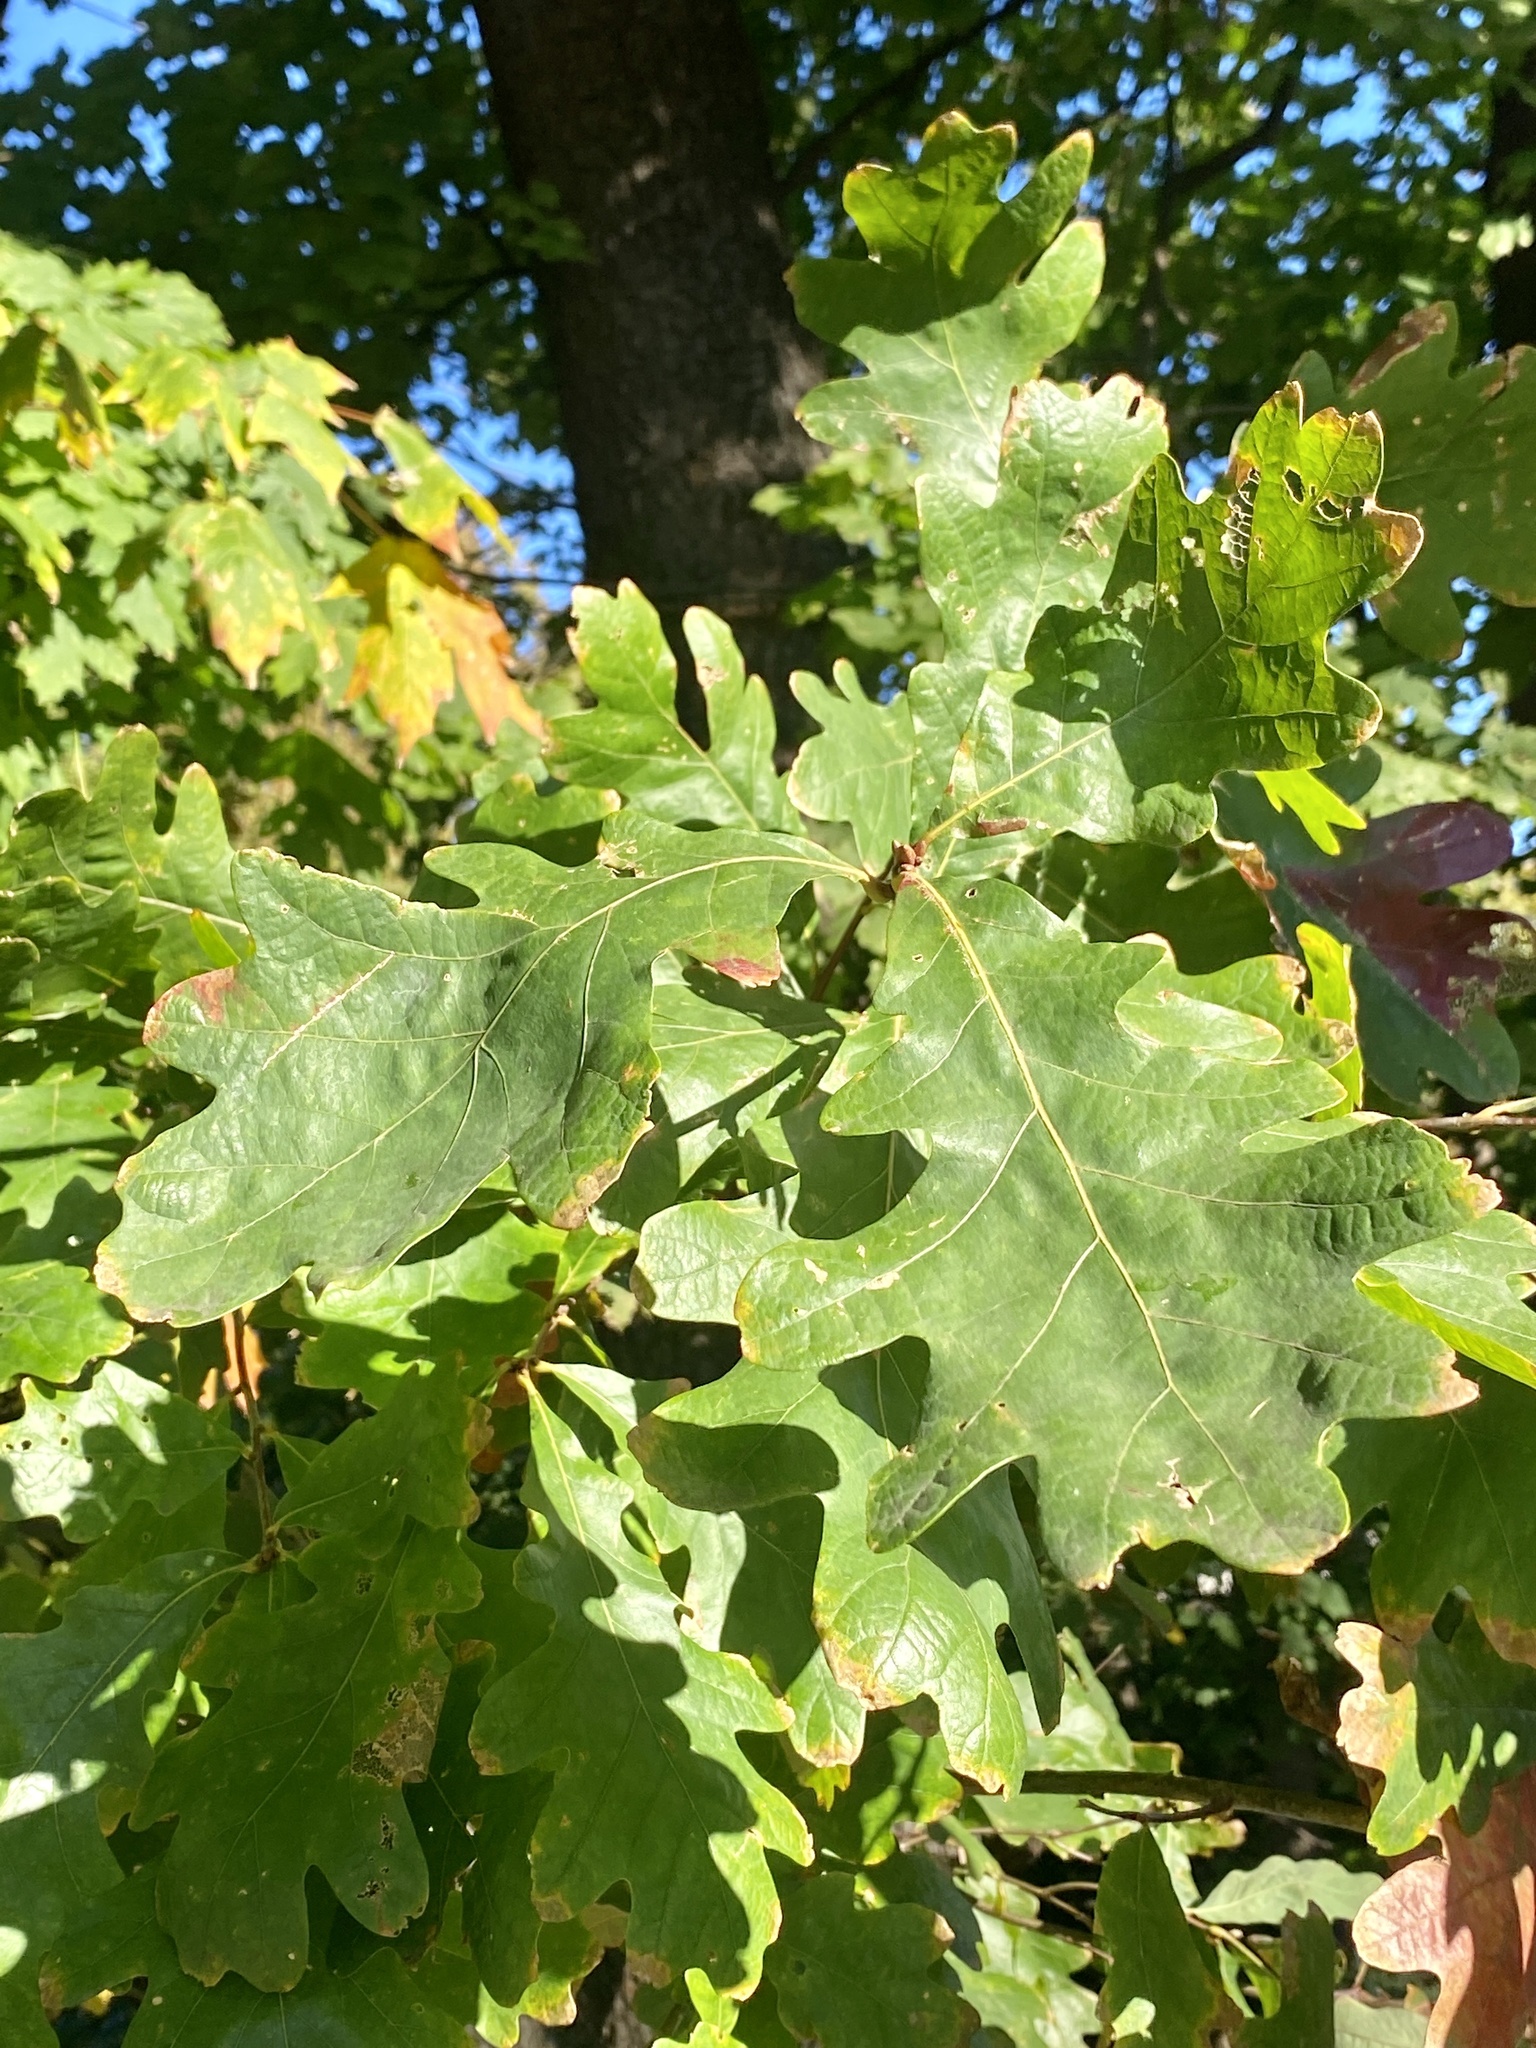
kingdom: Plantae
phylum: Tracheophyta
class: Magnoliopsida
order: Fagales
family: Fagaceae
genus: Quercus
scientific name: Quercus alba
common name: White oak
